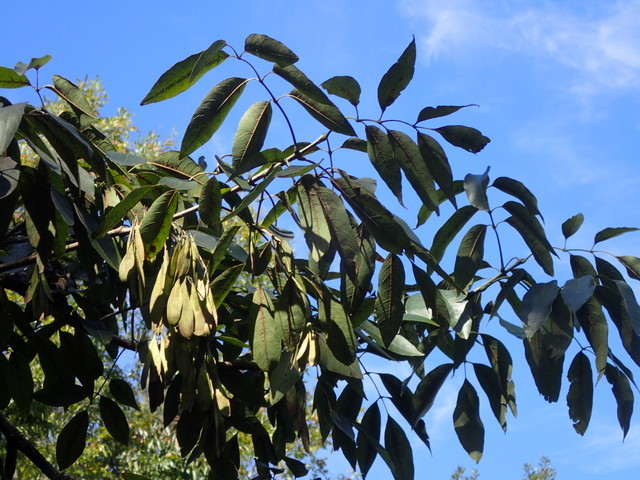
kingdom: Plantae
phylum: Tracheophyta
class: Magnoliopsida
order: Lamiales
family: Oleaceae
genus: Fraxinus
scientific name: Fraxinus americana
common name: White ash
